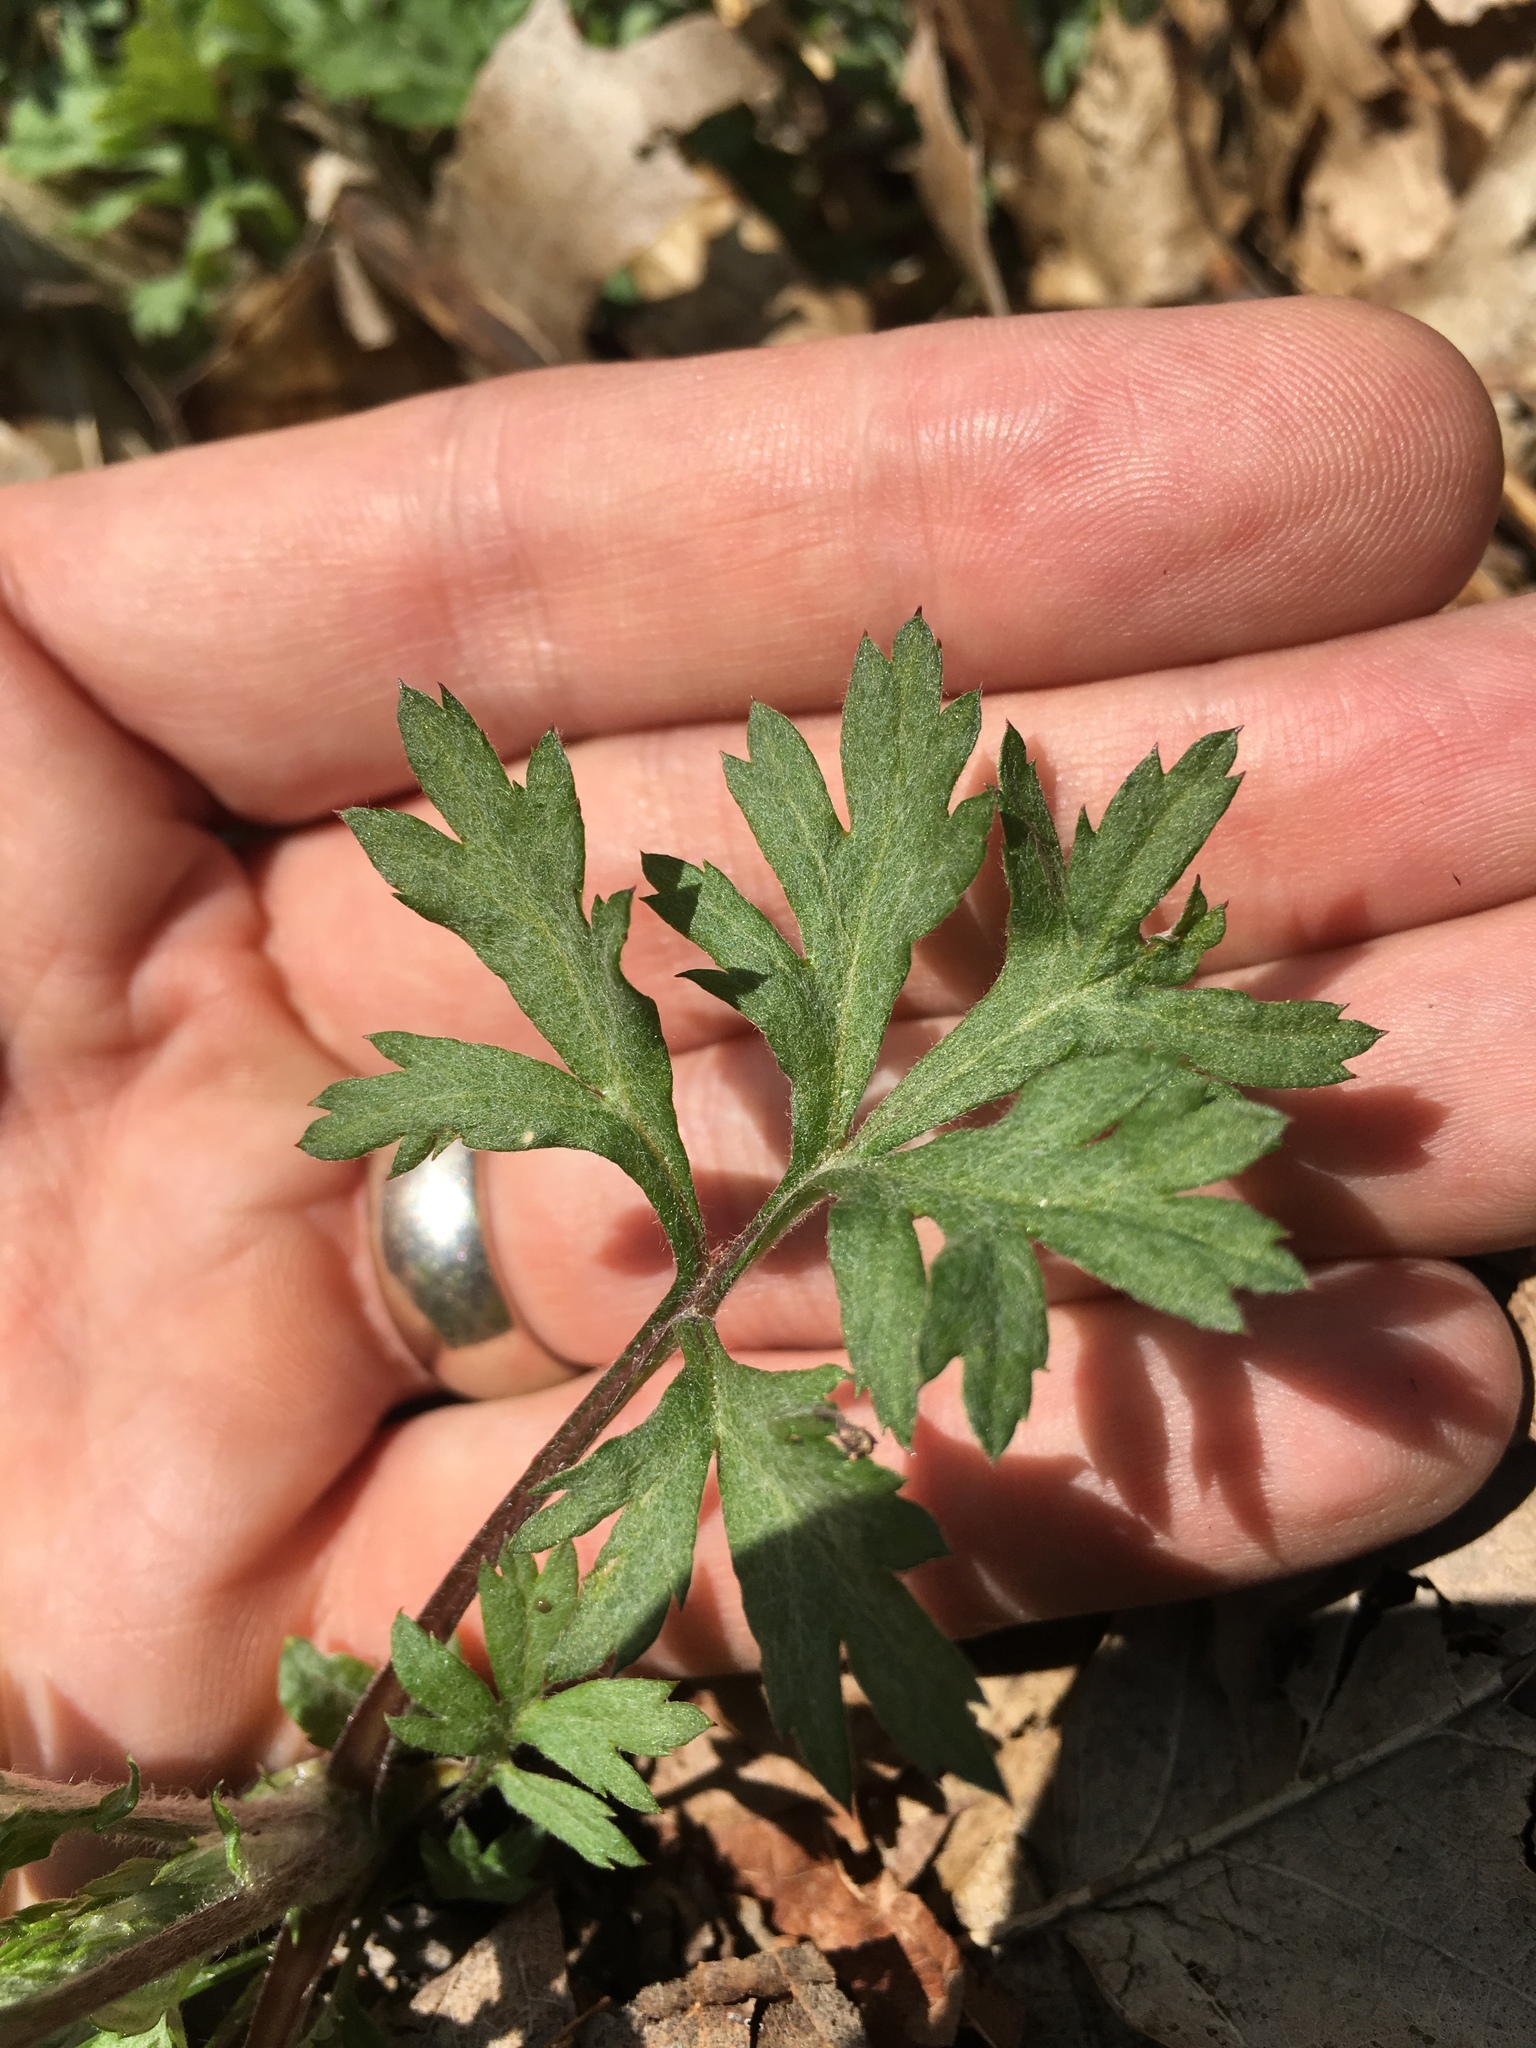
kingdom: Plantae
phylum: Tracheophyta
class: Magnoliopsida
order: Asterales
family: Asteraceae
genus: Artemisia
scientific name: Artemisia vulgaris
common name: Mugwort
